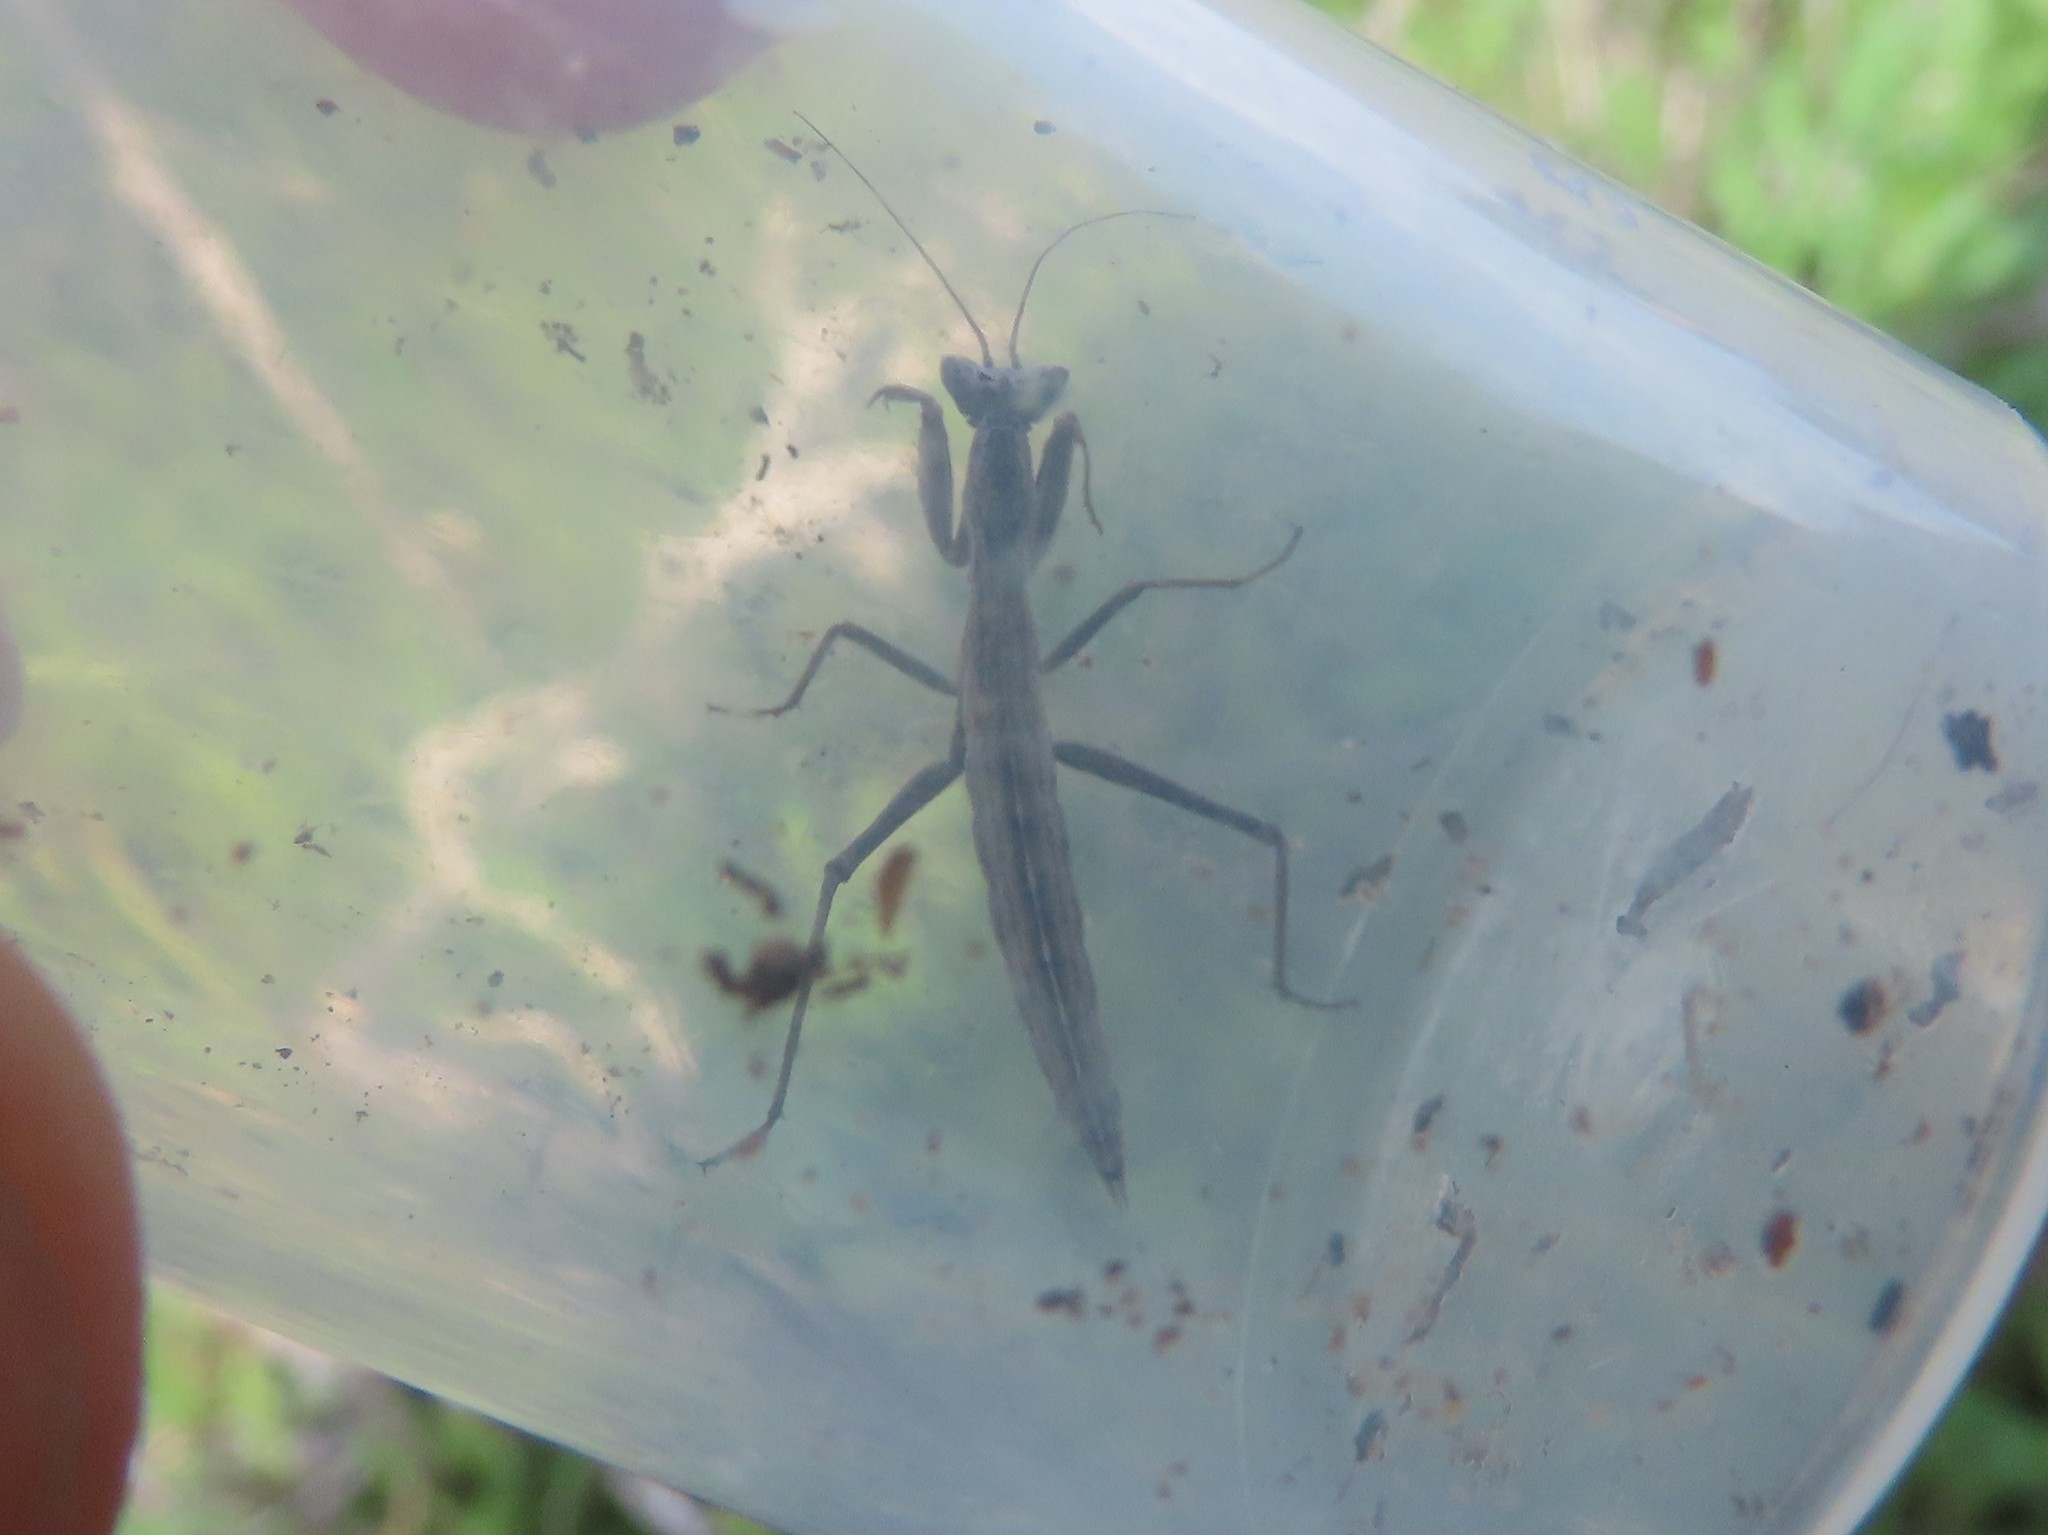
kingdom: Animalia
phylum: Arthropoda
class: Insecta
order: Mantodea
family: Amelidae
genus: Ameles
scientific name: Ameles picteti
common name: Pictet's dwarf mantis
